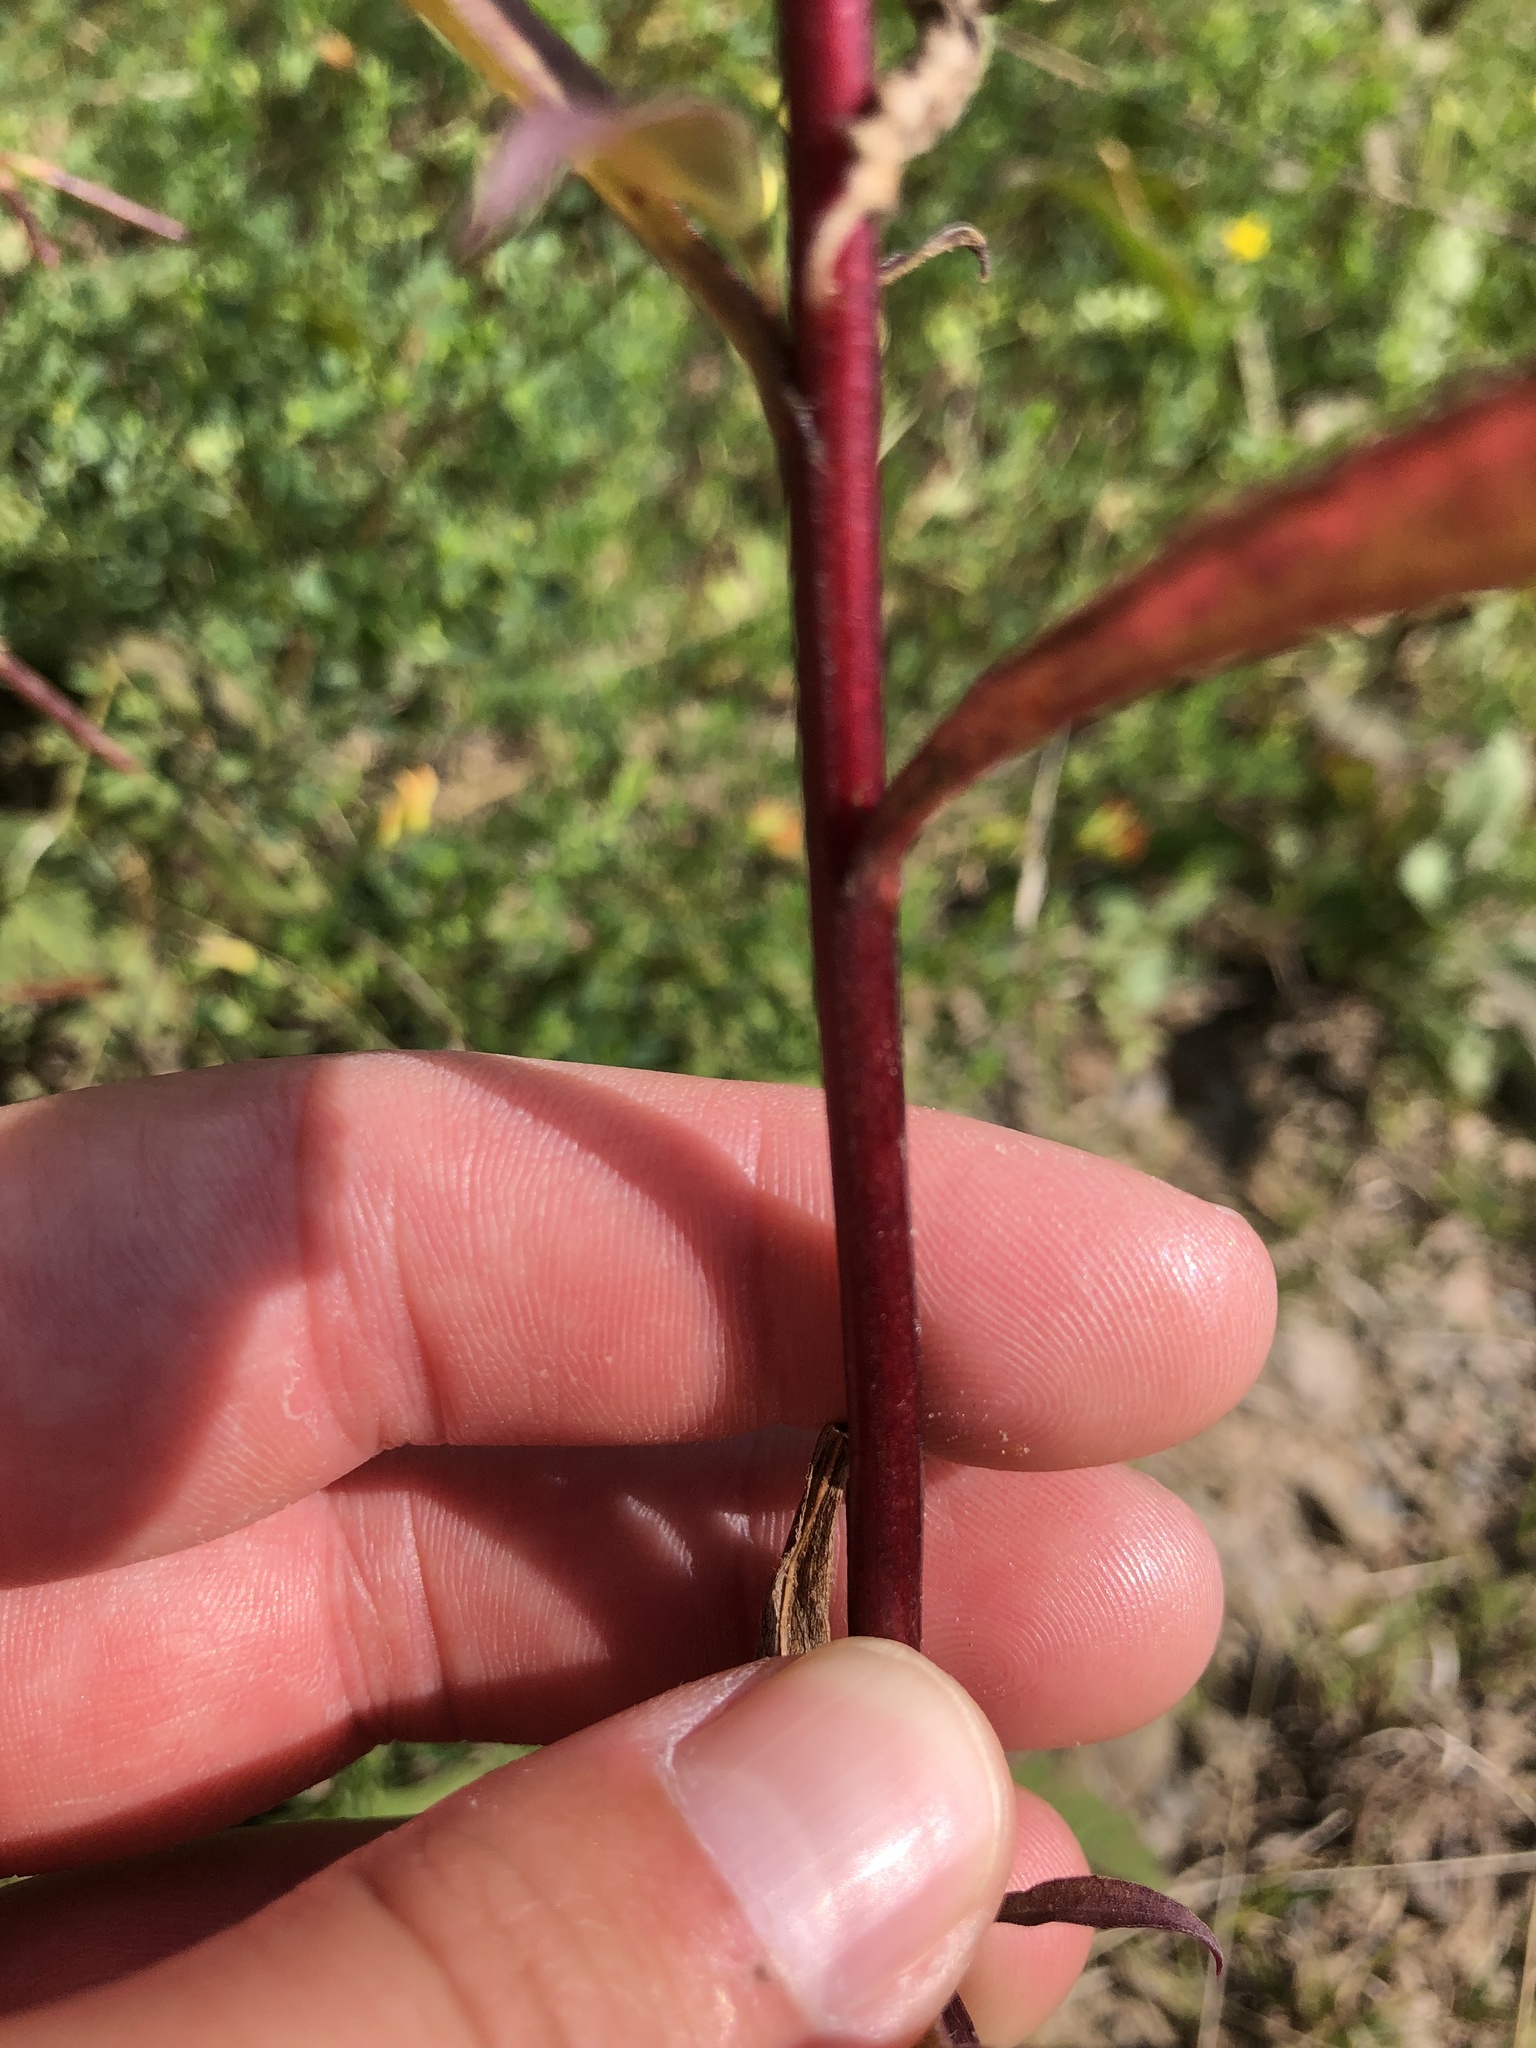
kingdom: Plantae
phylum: Tracheophyta
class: Magnoliopsida
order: Asterales
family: Asteraceae
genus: Solidago
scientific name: Solidago juncea
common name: Early goldenrod
